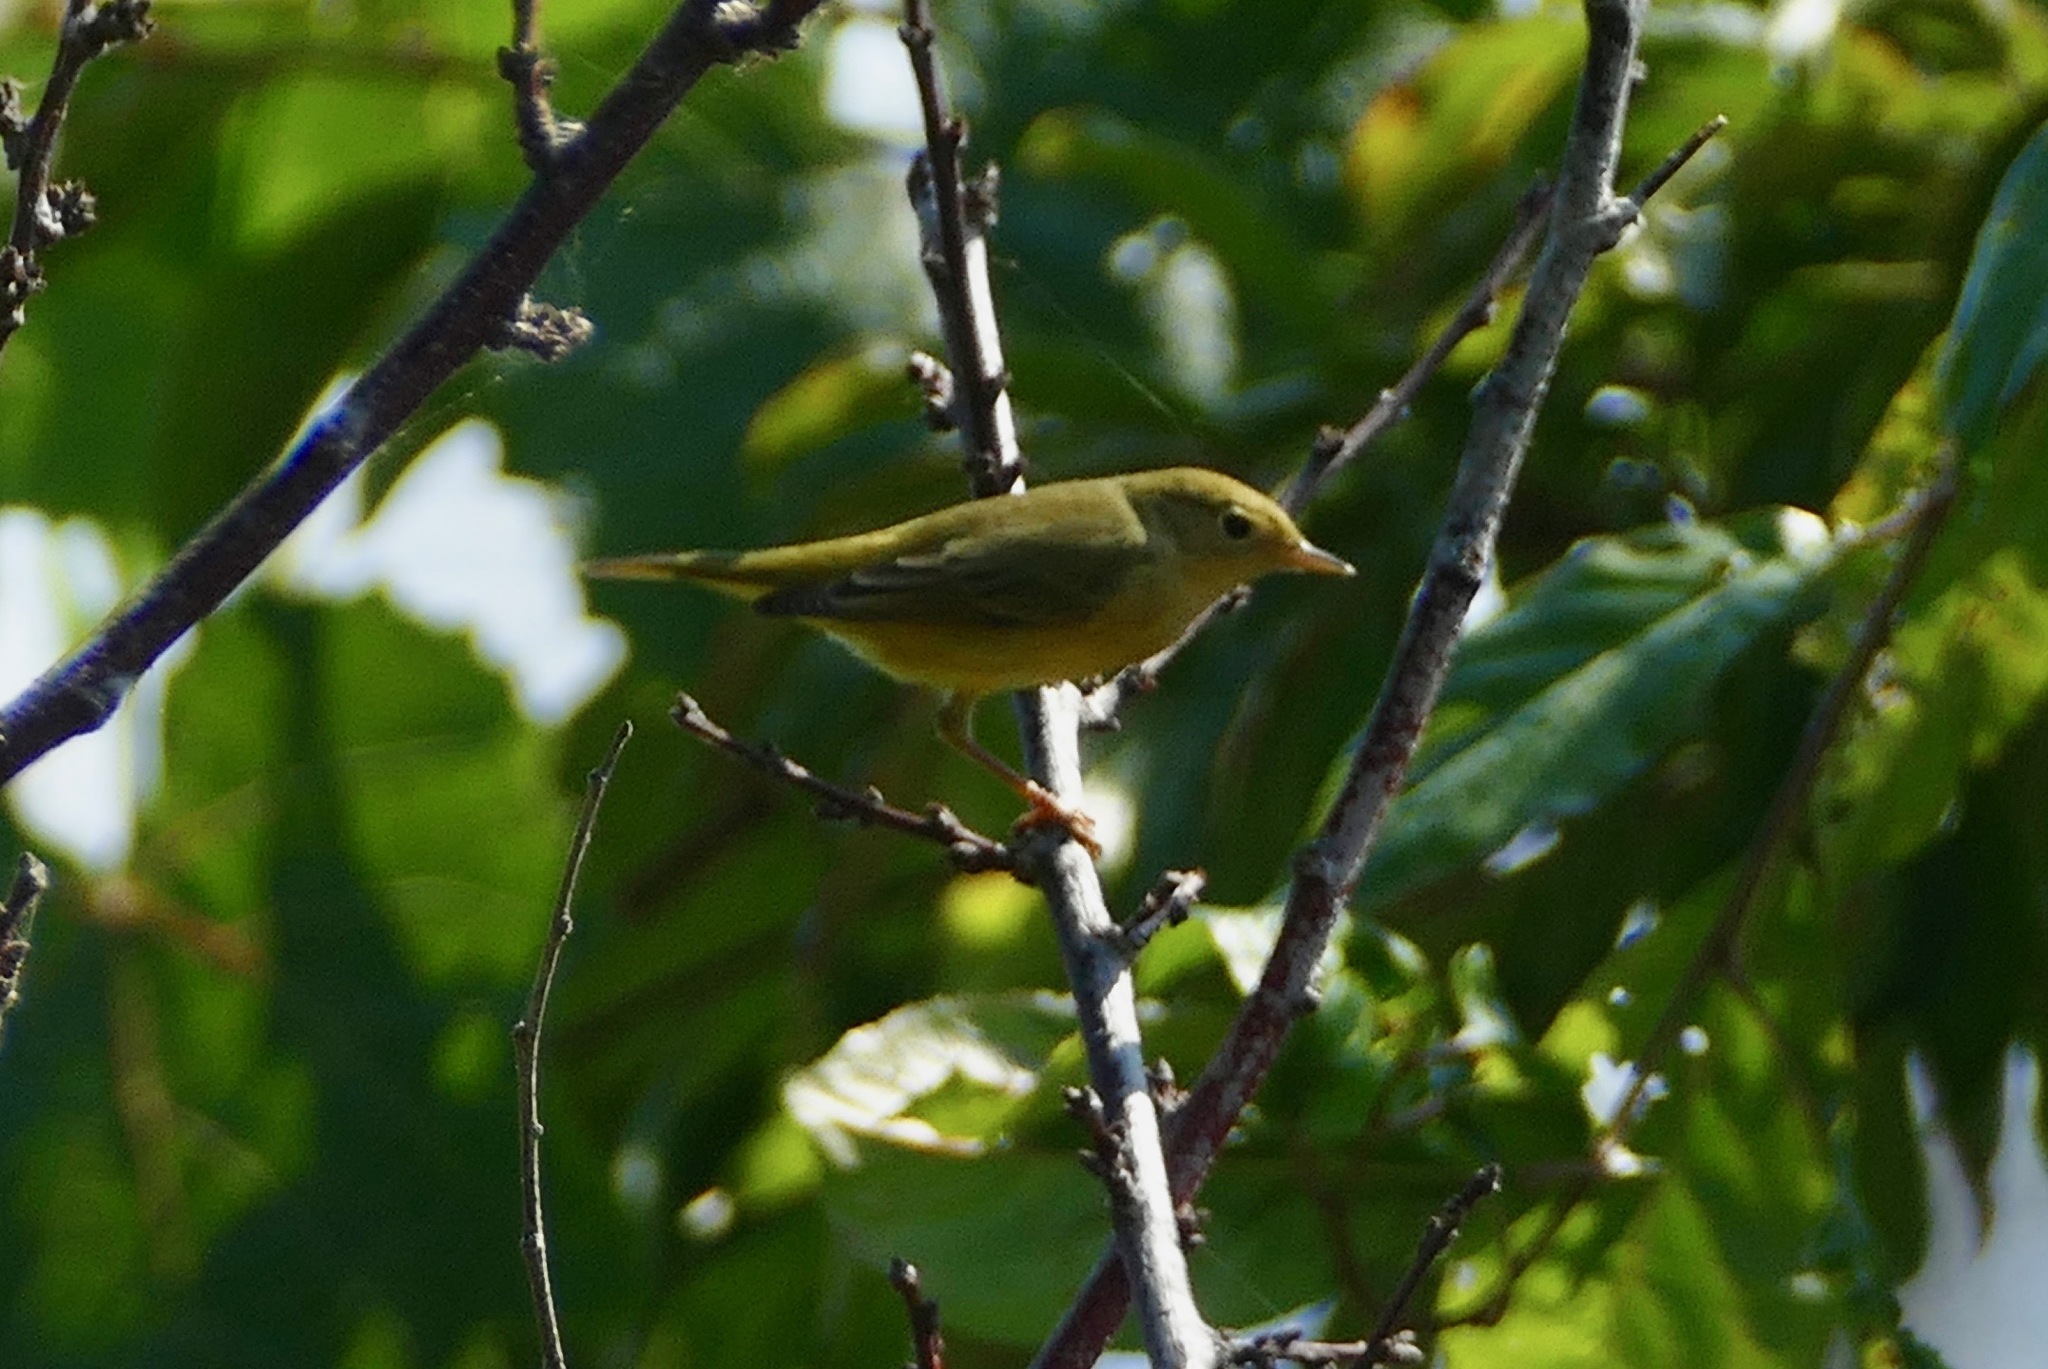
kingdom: Animalia
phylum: Chordata
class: Aves
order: Passeriformes
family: Parulidae
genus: Setophaga
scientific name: Setophaga petechia
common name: Yellow warbler
